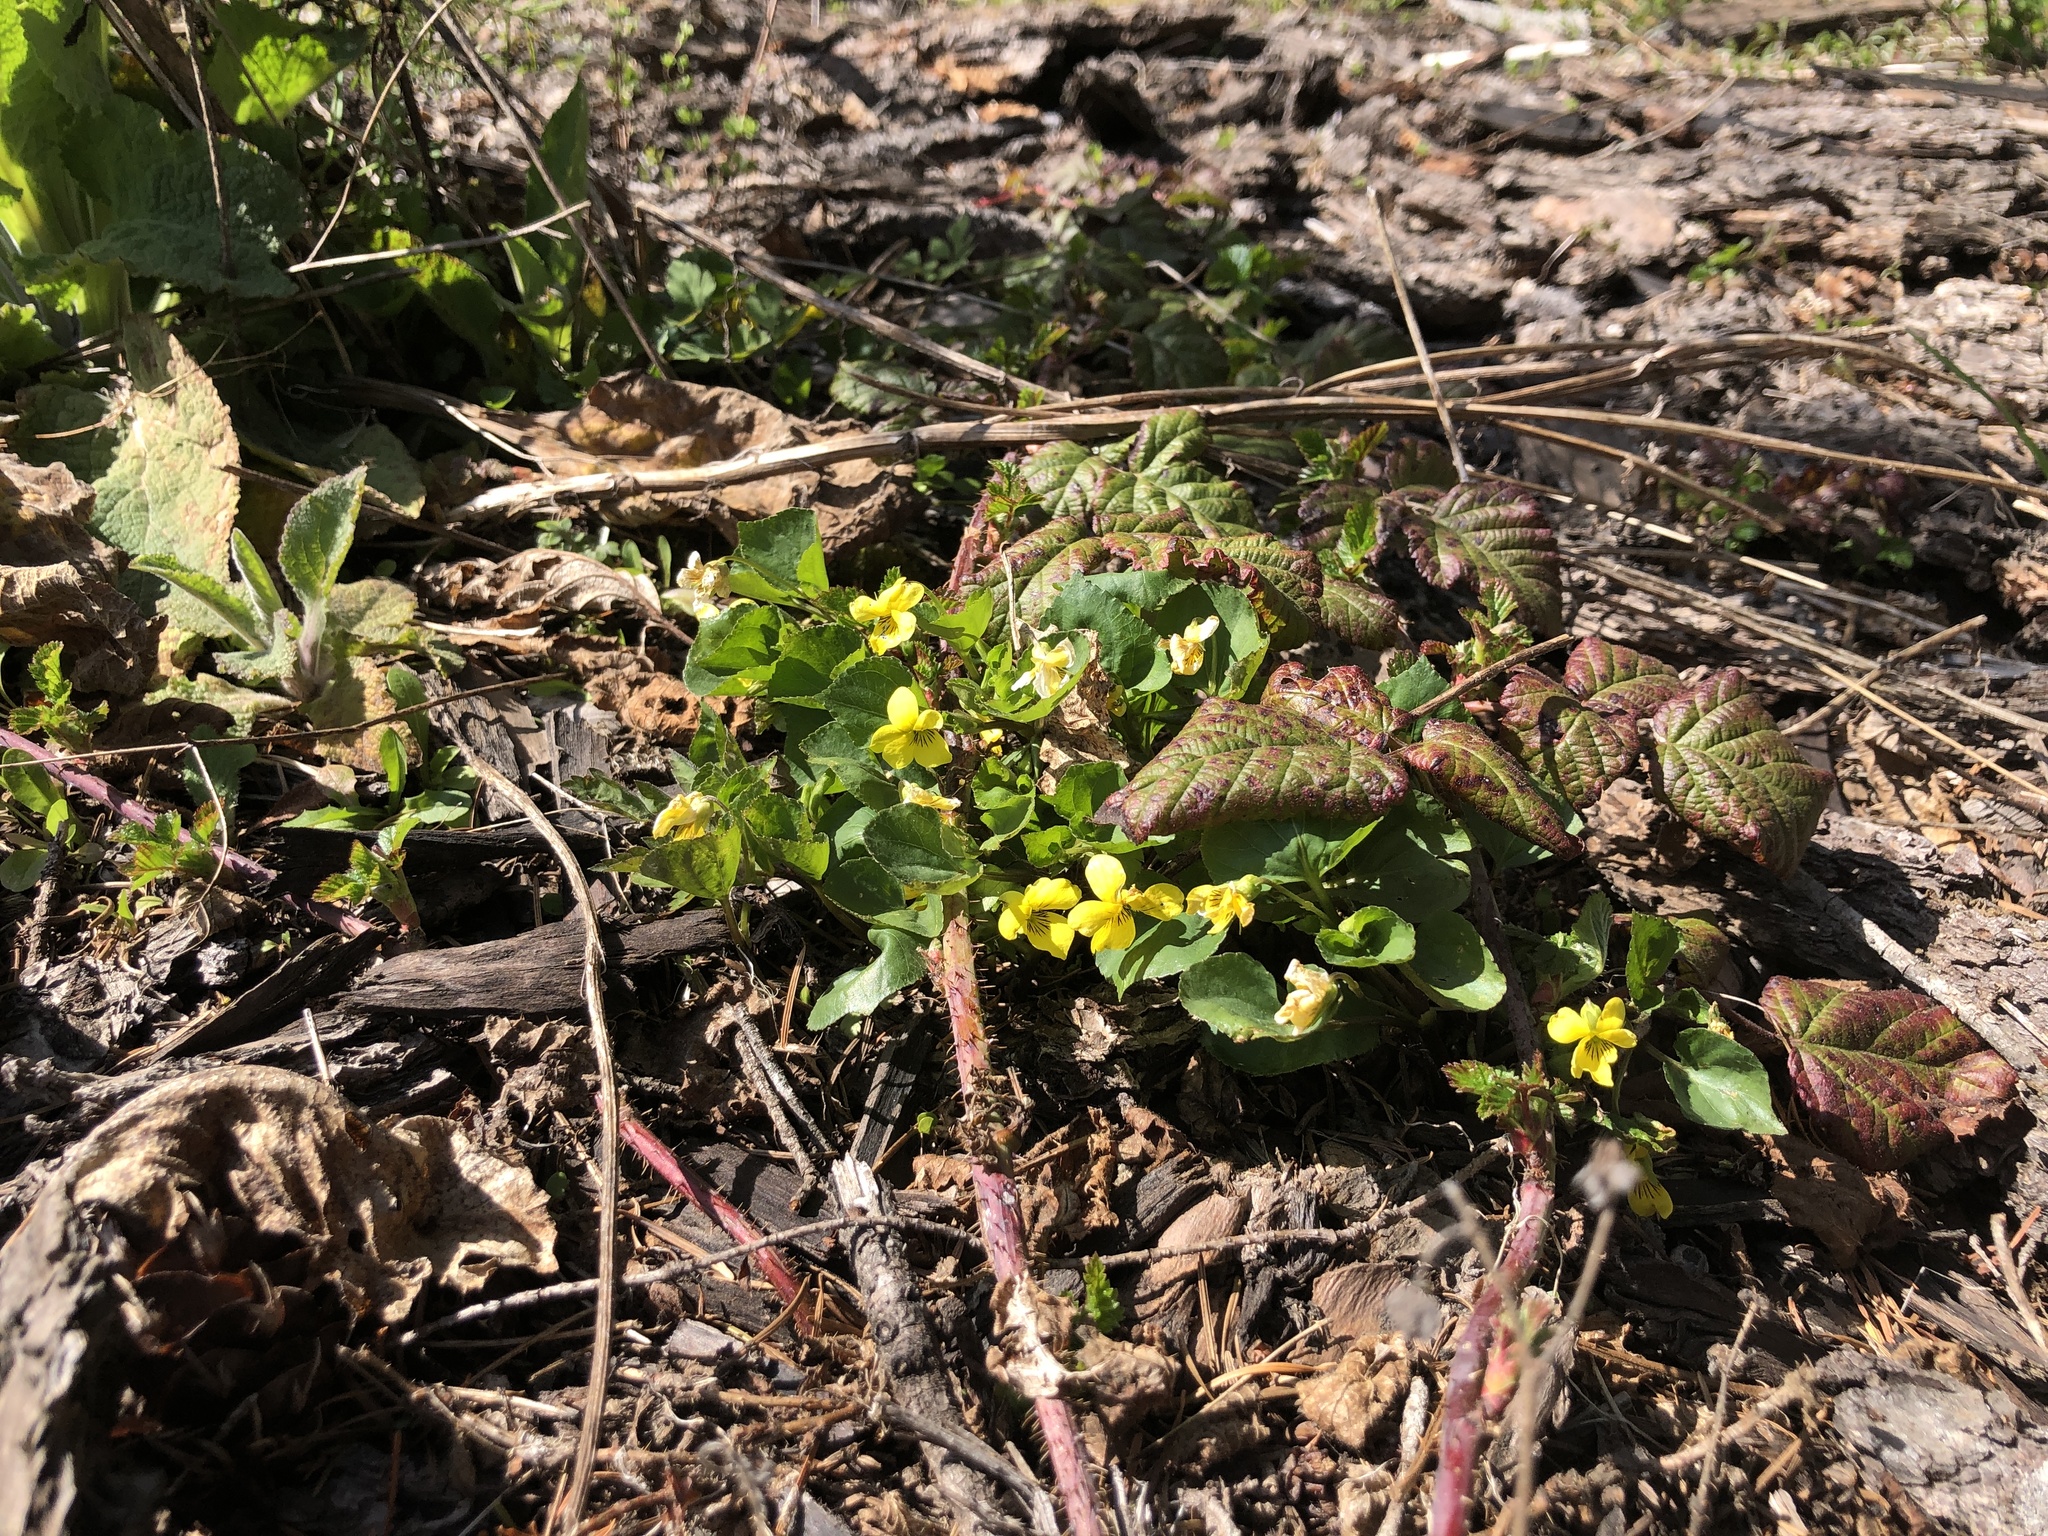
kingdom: Plantae
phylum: Tracheophyta
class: Magnoliopsida
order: Malpighiales
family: Violaceae
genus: Viola
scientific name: Viola glabella
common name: Stream violet
